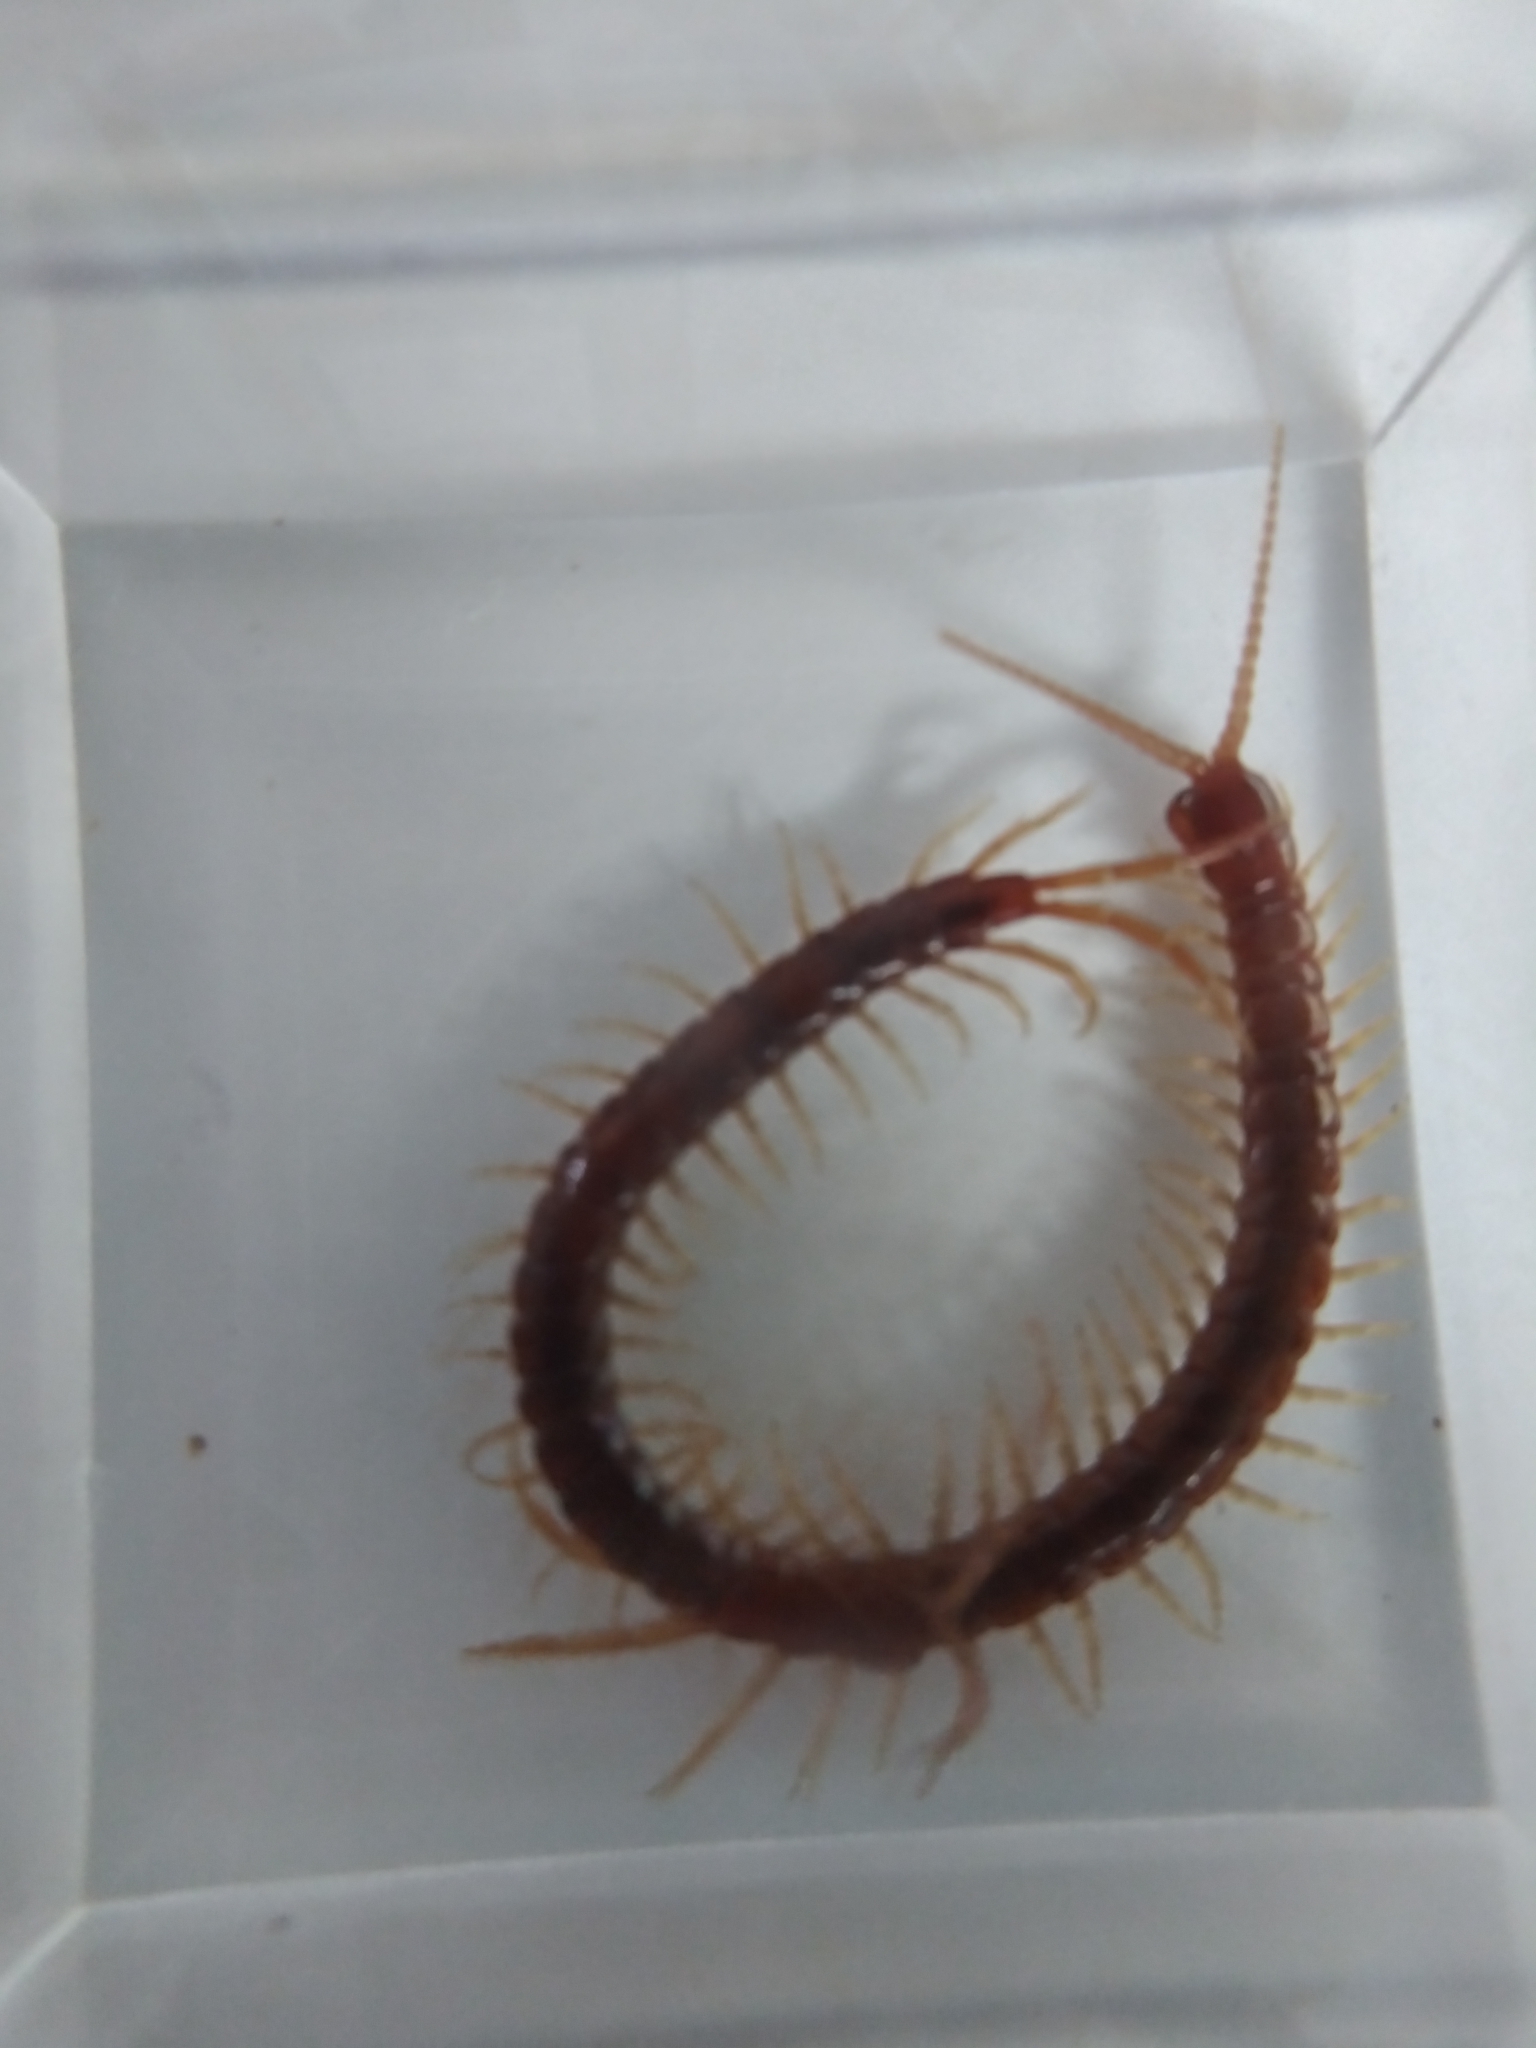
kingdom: Animalia
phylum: Arthropoda
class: Chilopoda
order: Scolopendromorpha
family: Scolopocryptopidae
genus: Scolopocryptops
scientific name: Scolopocryptops sexspinosus
